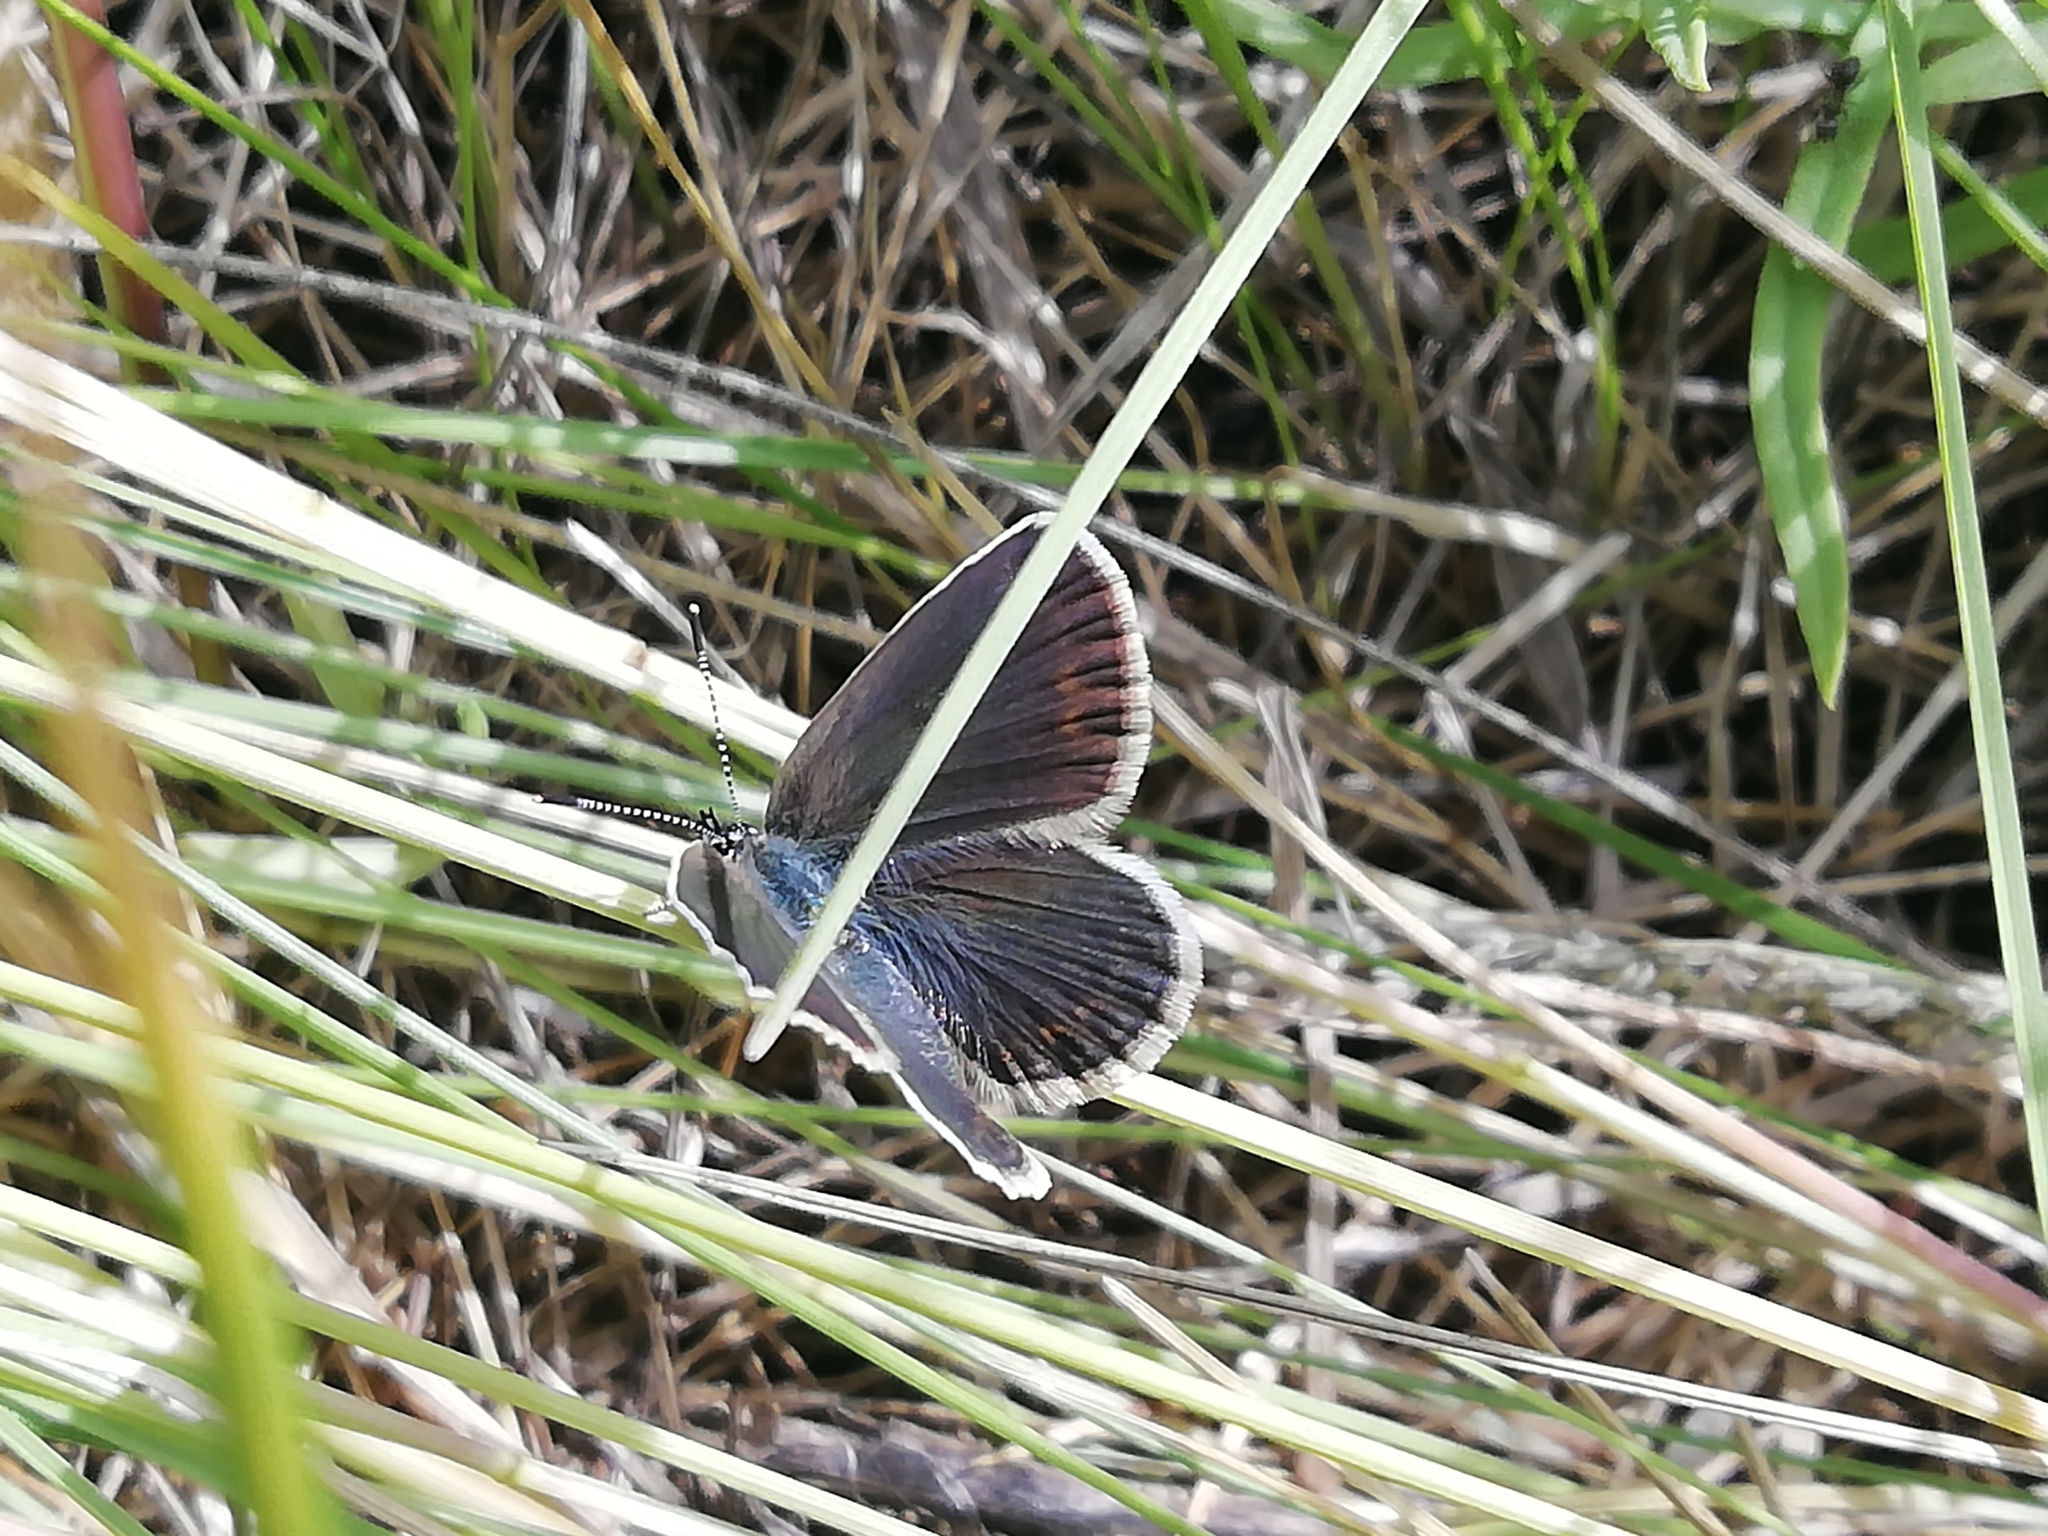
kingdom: Animalia
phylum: Arthropoda
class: Insecta
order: Lepidoptera
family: Lycaenidae
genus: Plebejus
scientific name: Plebejus argus
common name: Silver-studded blue
